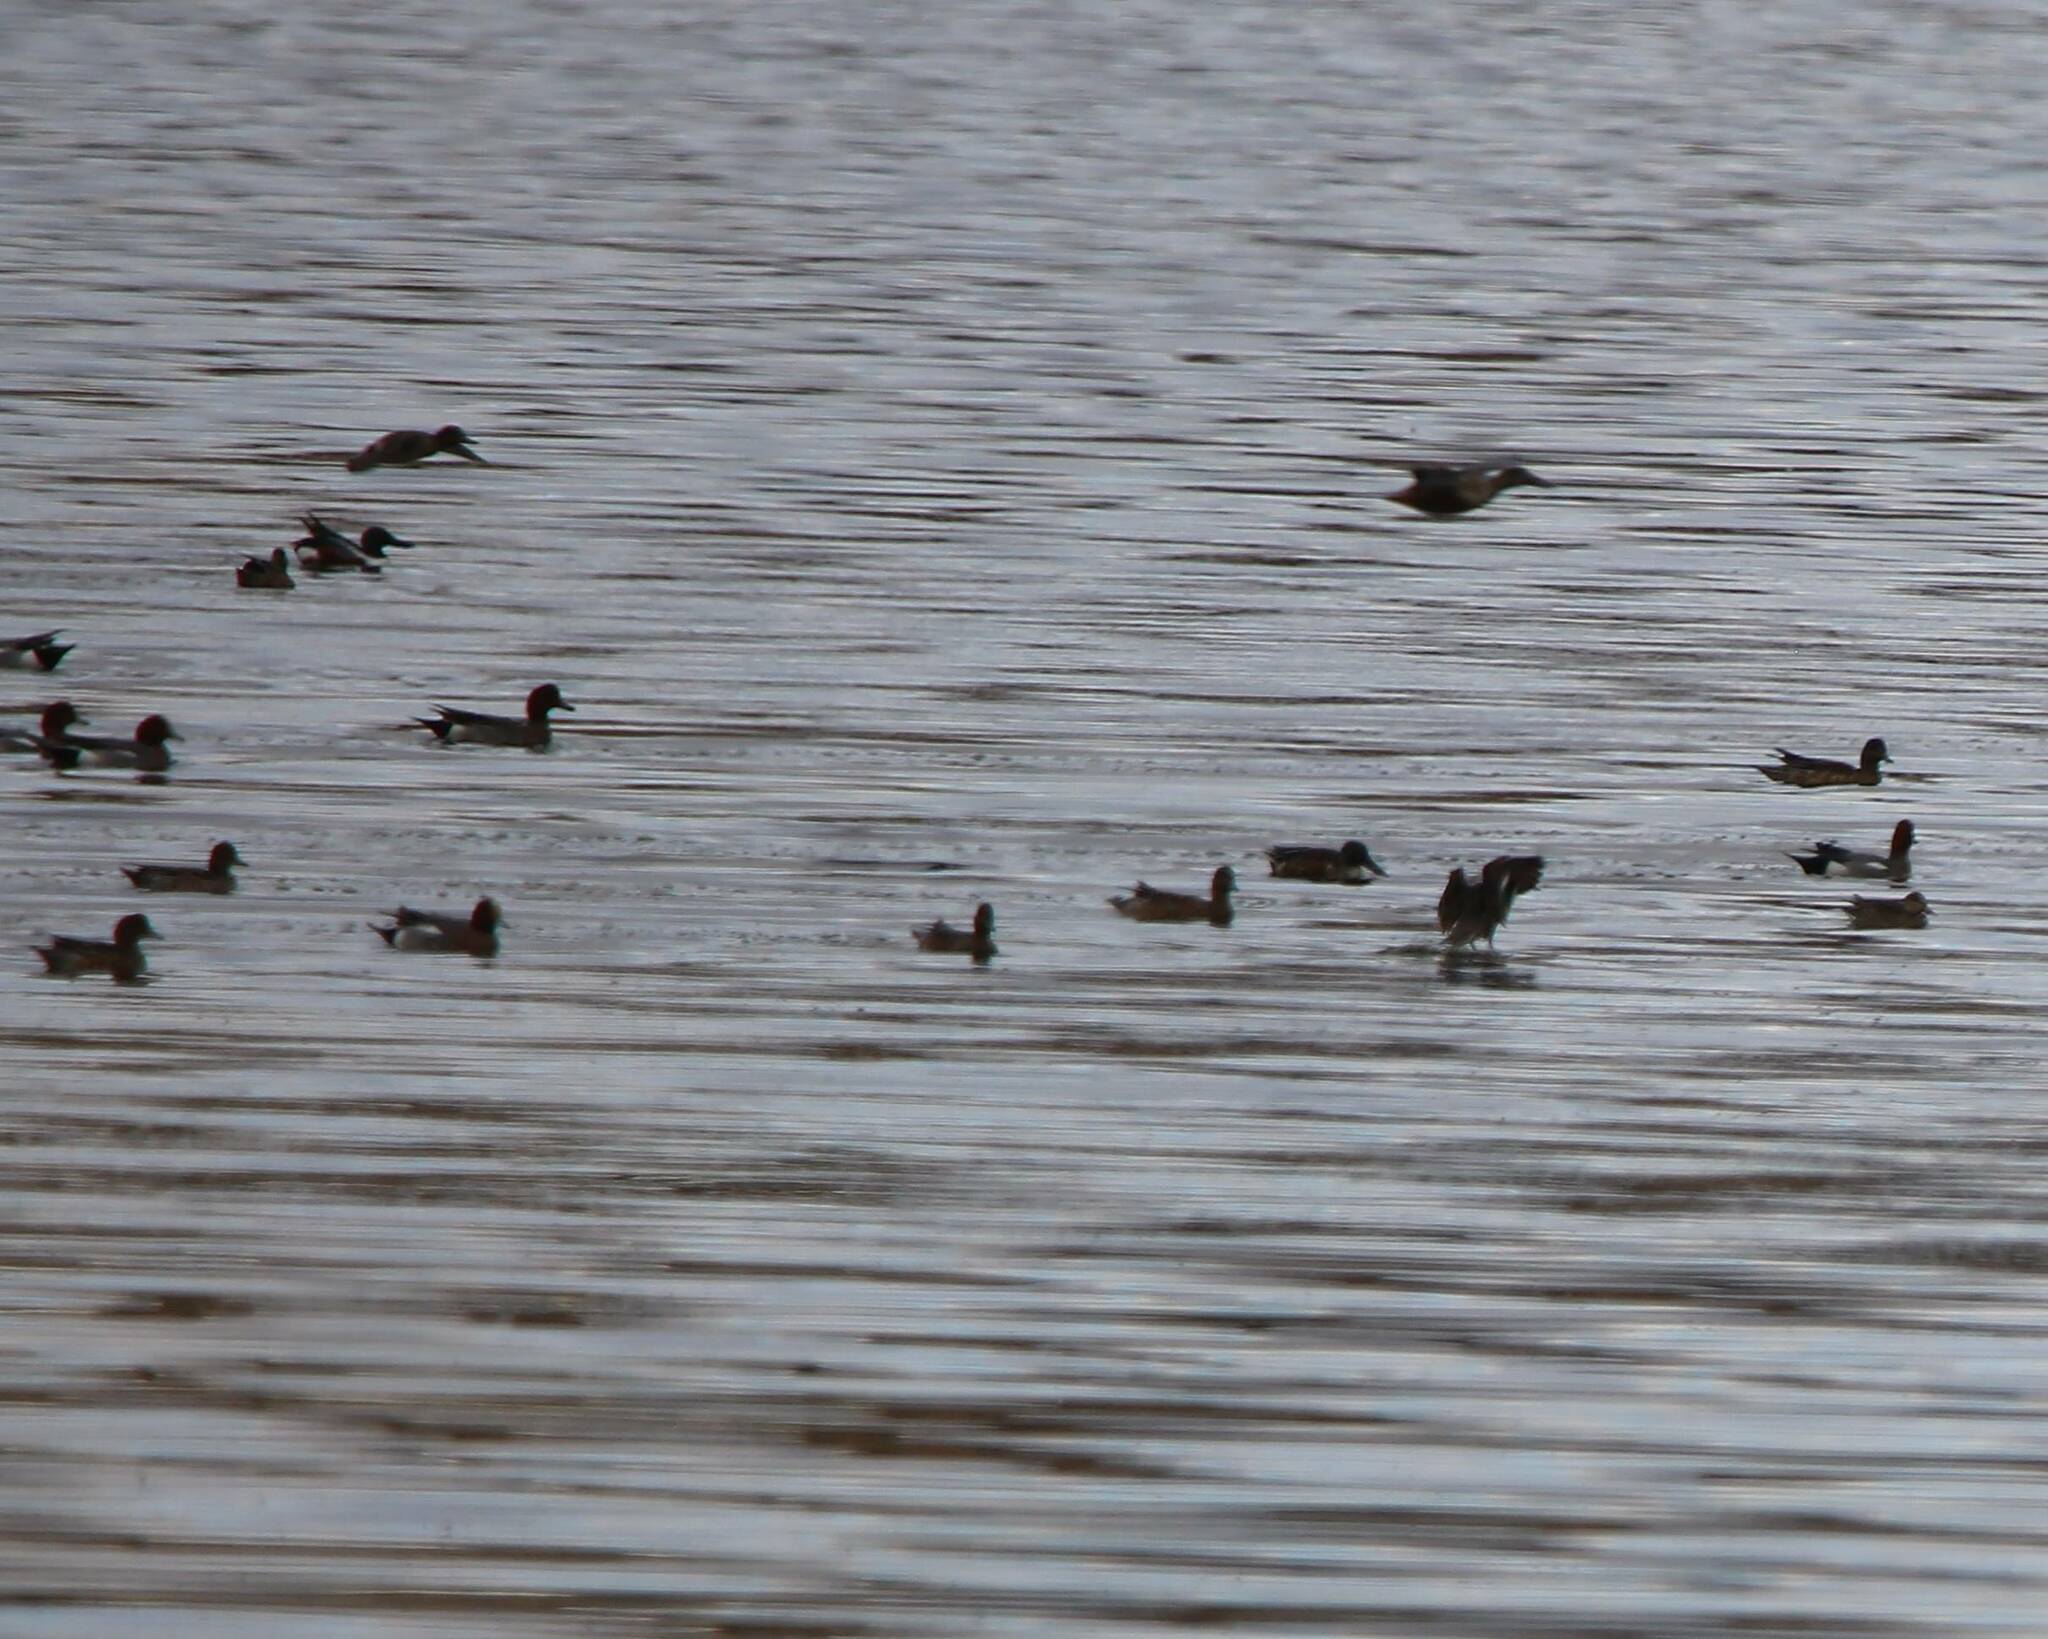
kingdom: Animalia
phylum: Chordata
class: Aves
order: Anseriformes
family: Anatidae
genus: Mareca
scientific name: Mareca penelope
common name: Eurasian wigeon
